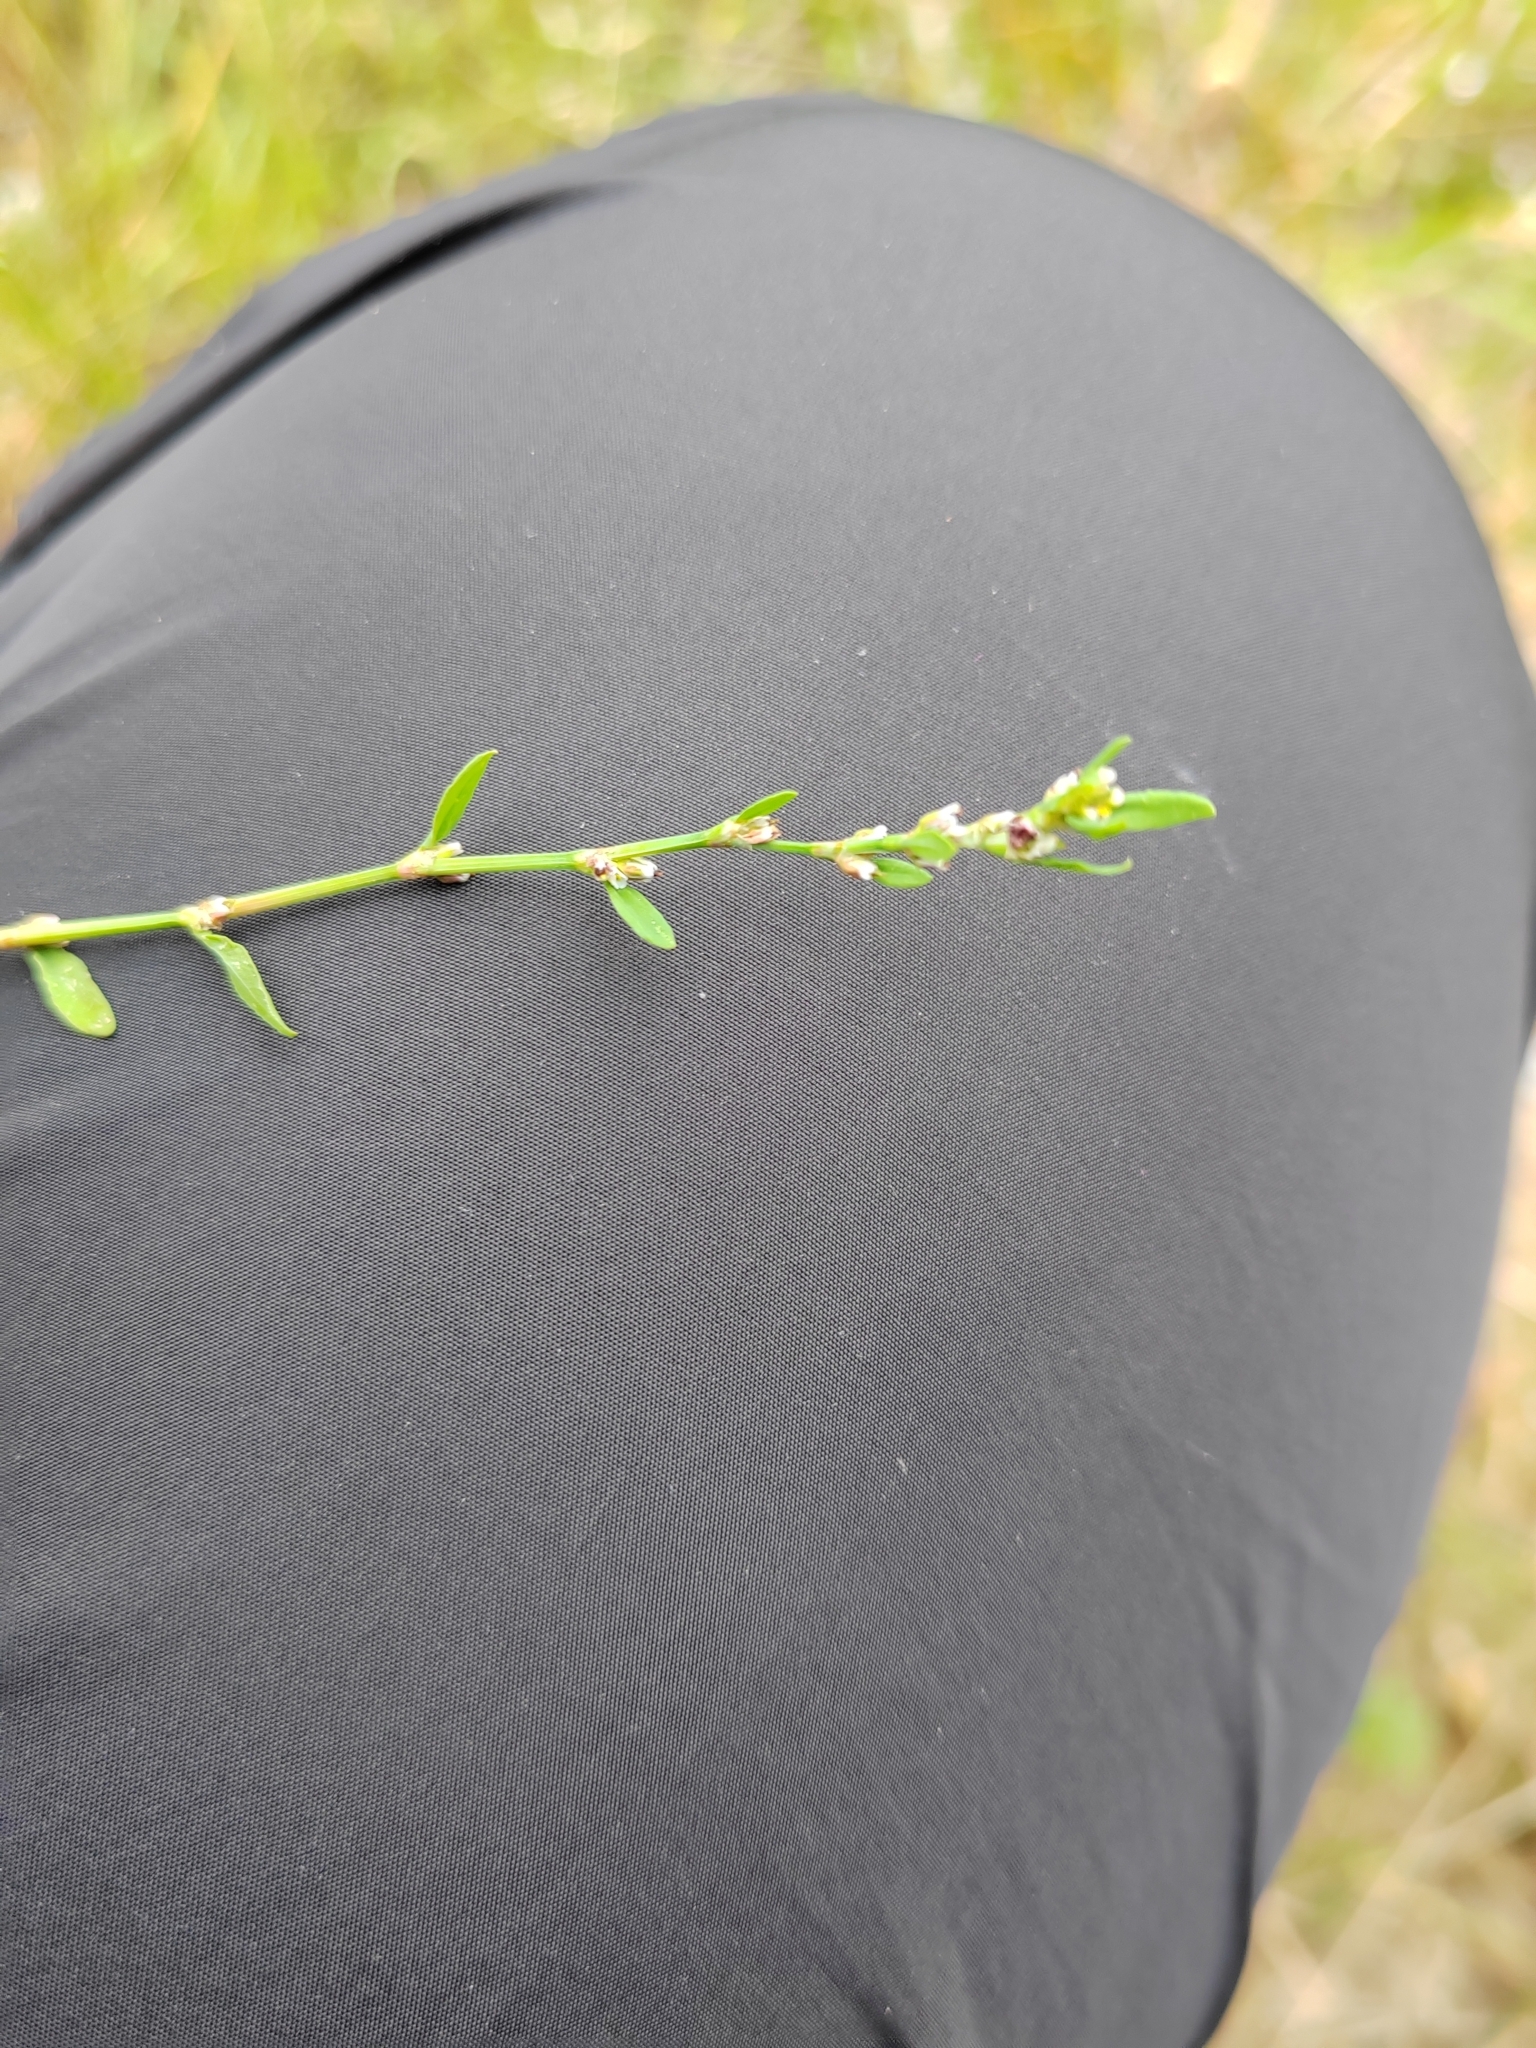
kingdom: Plantae
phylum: Tracheophyta
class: Magnoliopsida
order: Caryophyllales
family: Polygonaceae
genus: Polygonum
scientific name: Polygonum
